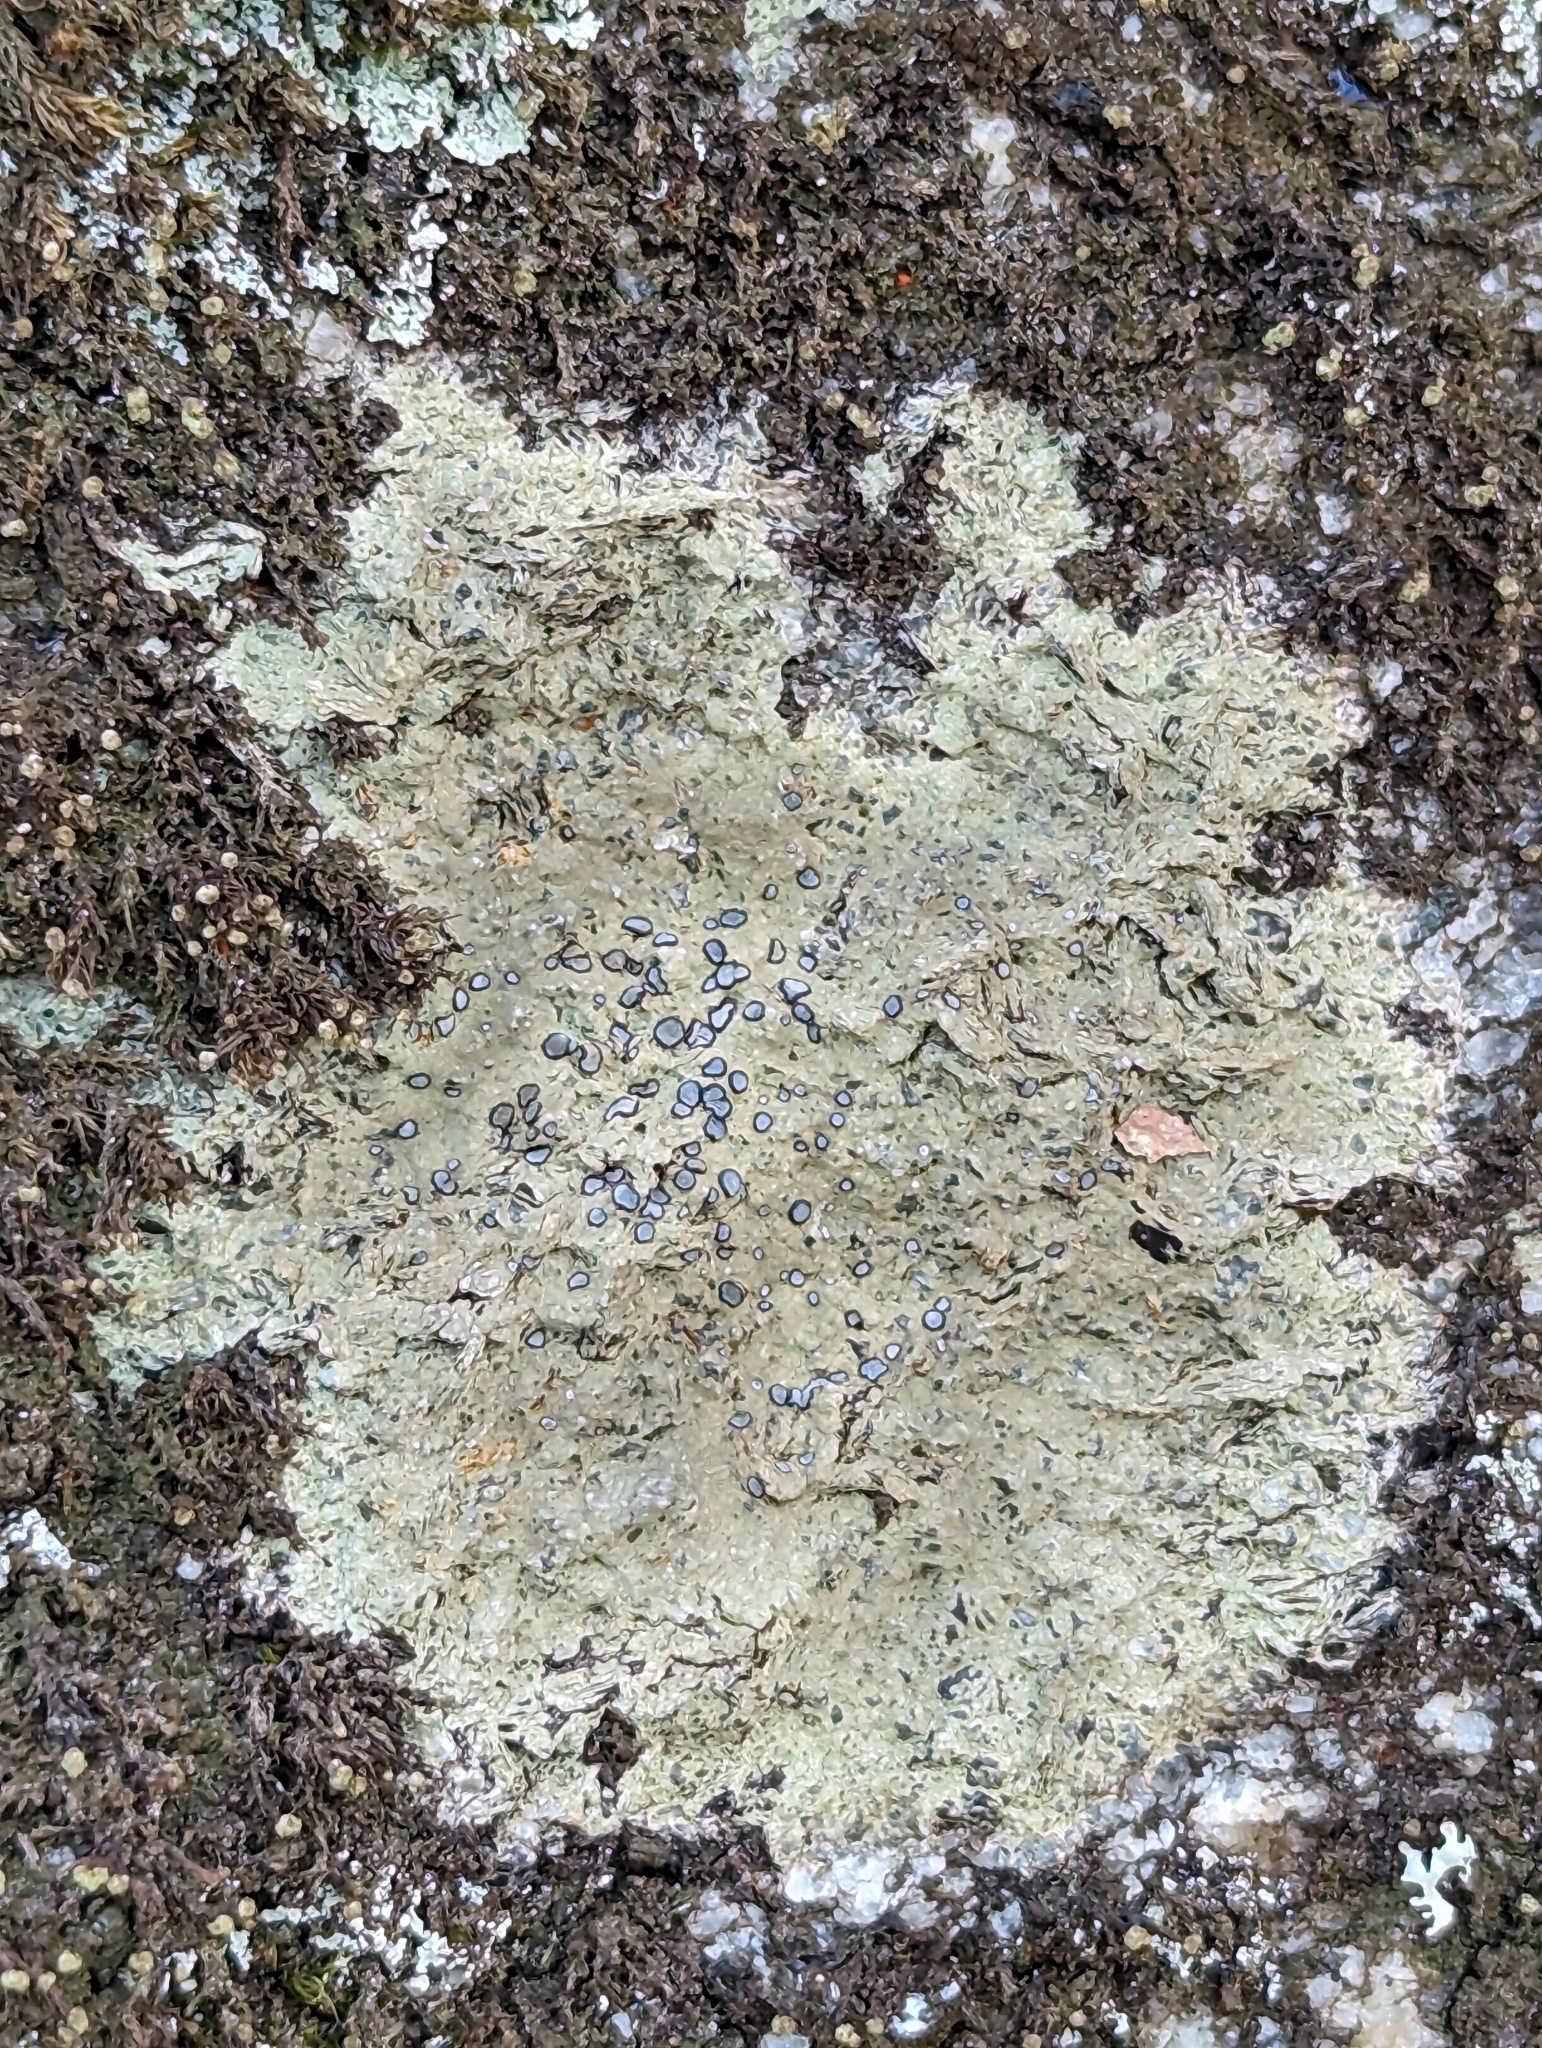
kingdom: Fungi
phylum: Ascomycota
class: Lecanoromycetes
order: Lecideales
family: Lecideaceae
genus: Porpidia
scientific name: Porpidia albocaerulescens
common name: Smokey-eyed boulder lichen
